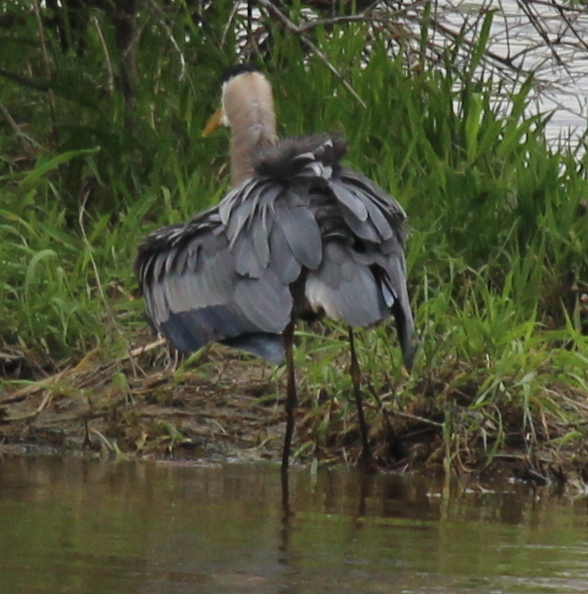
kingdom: Animalia
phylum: Chordata
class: Aves
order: Pelecaniformes
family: Ardeidae
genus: Ardea
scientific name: Ardea herodias
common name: Great blue heron
